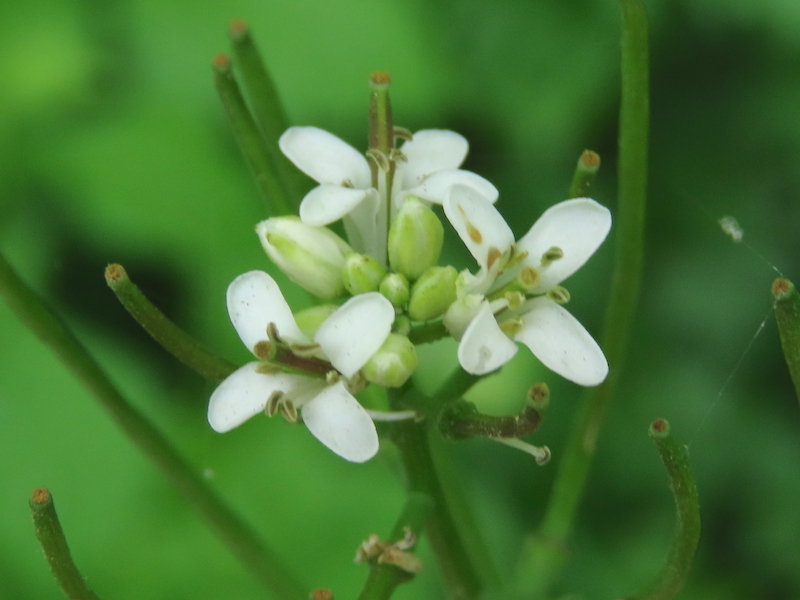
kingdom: Plantae
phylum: Tracheophyta
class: Magnoliopsida
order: Brassicales
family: Brassicaceae
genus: Alliaria
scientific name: Alliaria petiolata
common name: Garlic mustard
